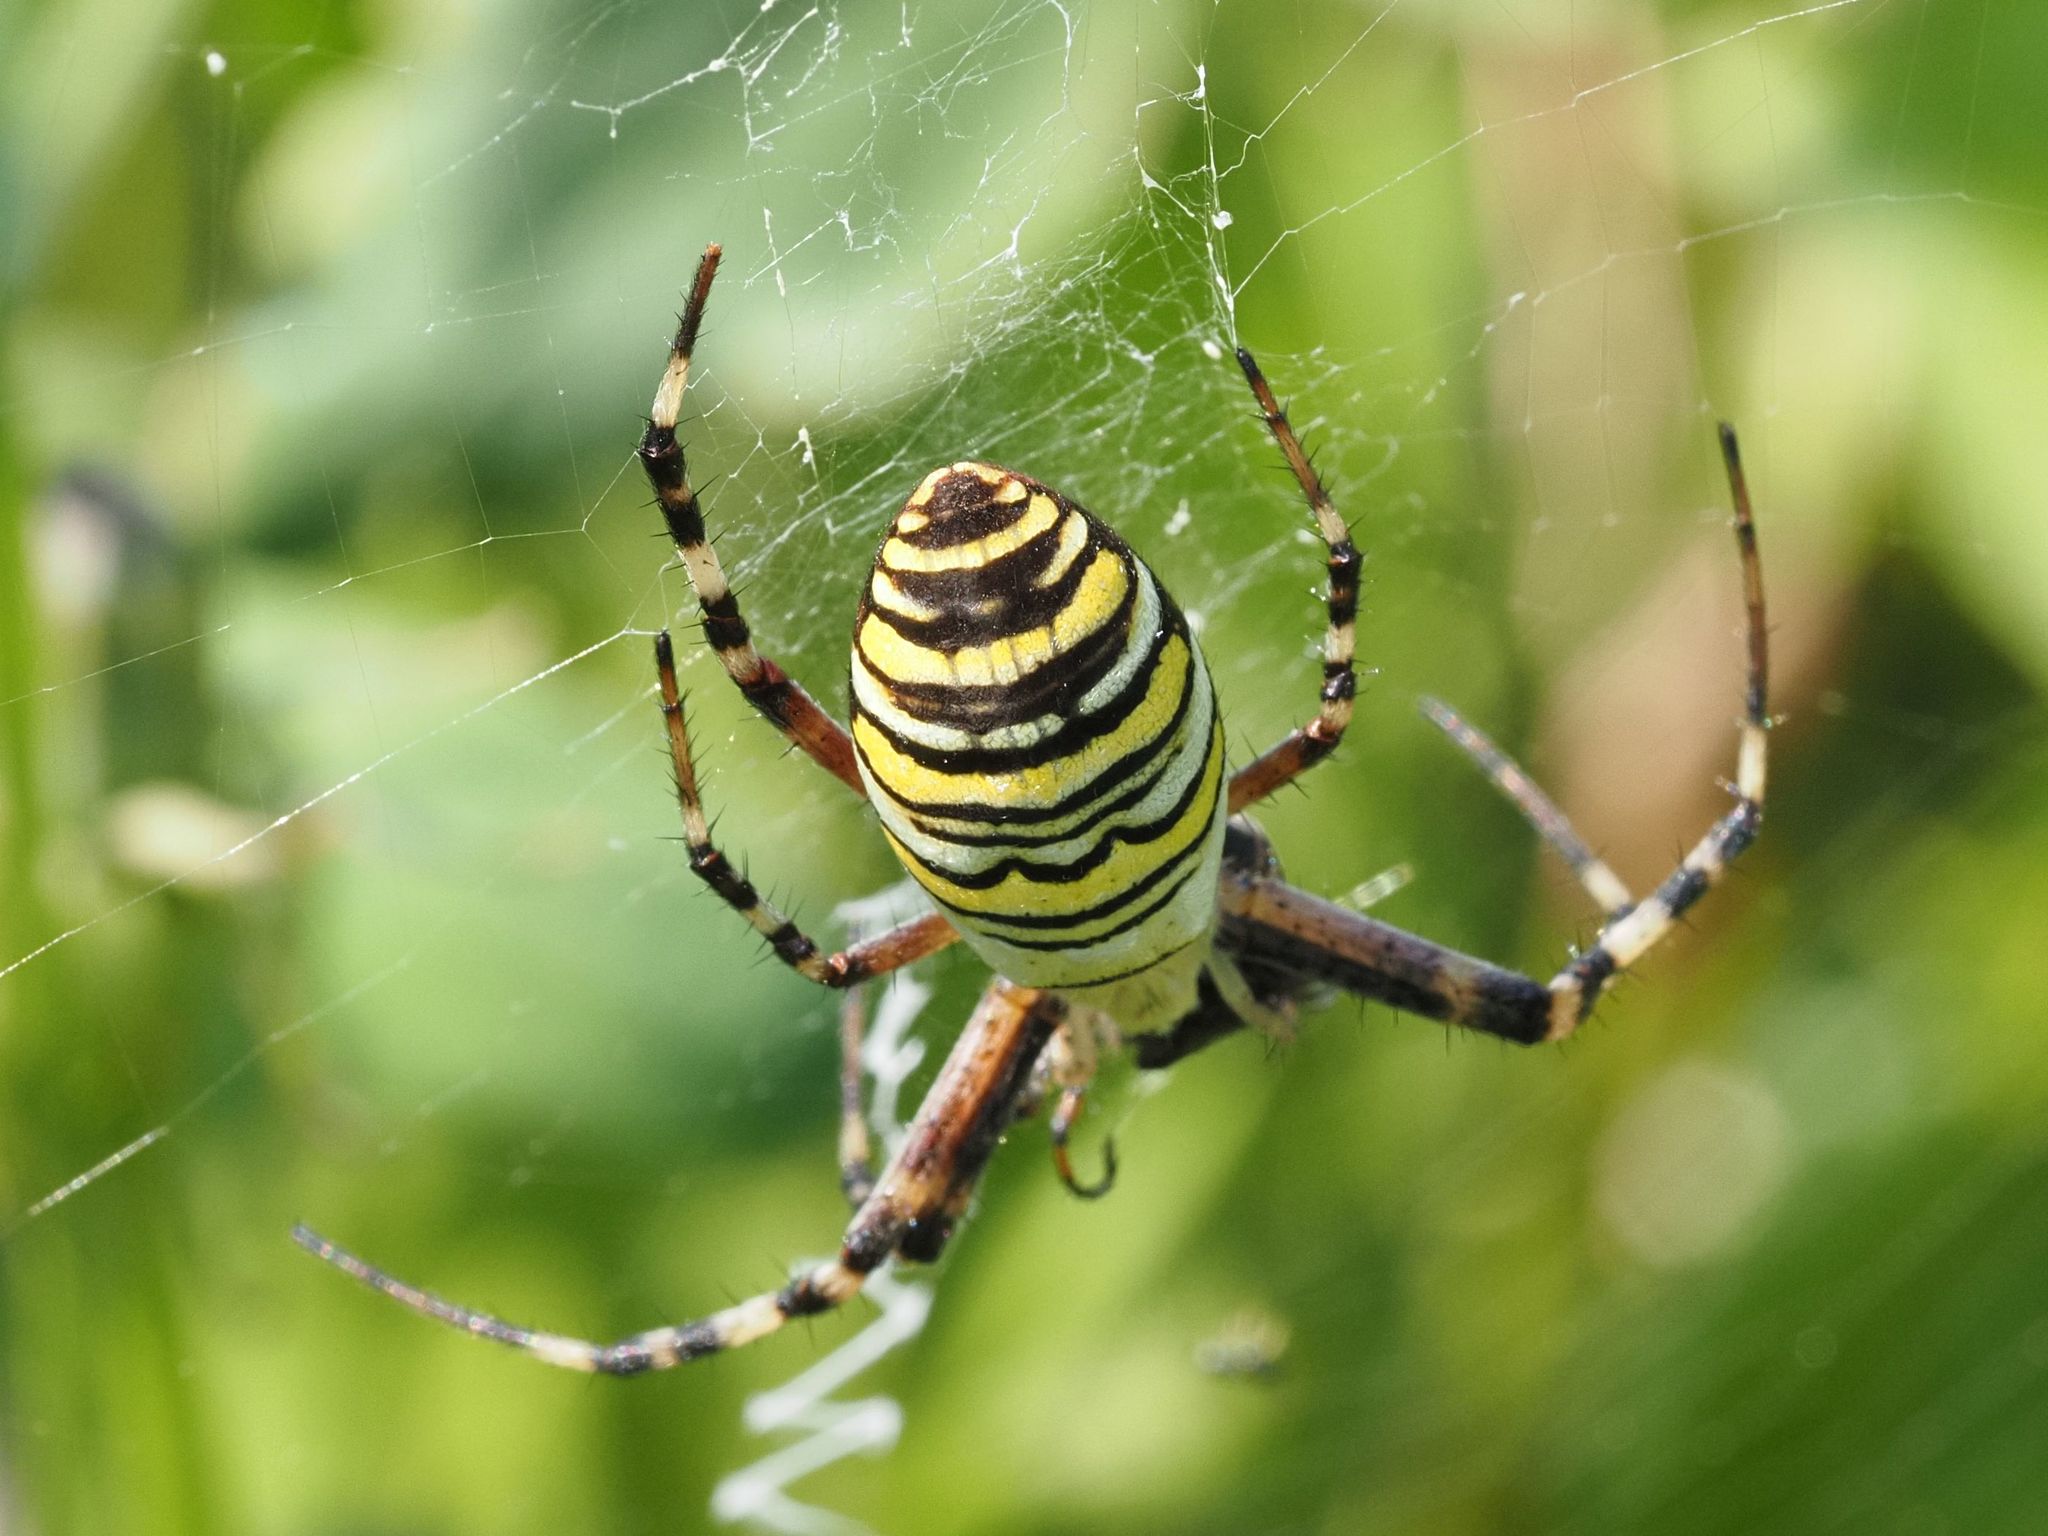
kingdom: Animalia
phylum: Arthropoda
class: Arachnida
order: Araneae
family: Araneidae
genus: Argiope
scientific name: Argiope bruennichi
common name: Wasp spider
